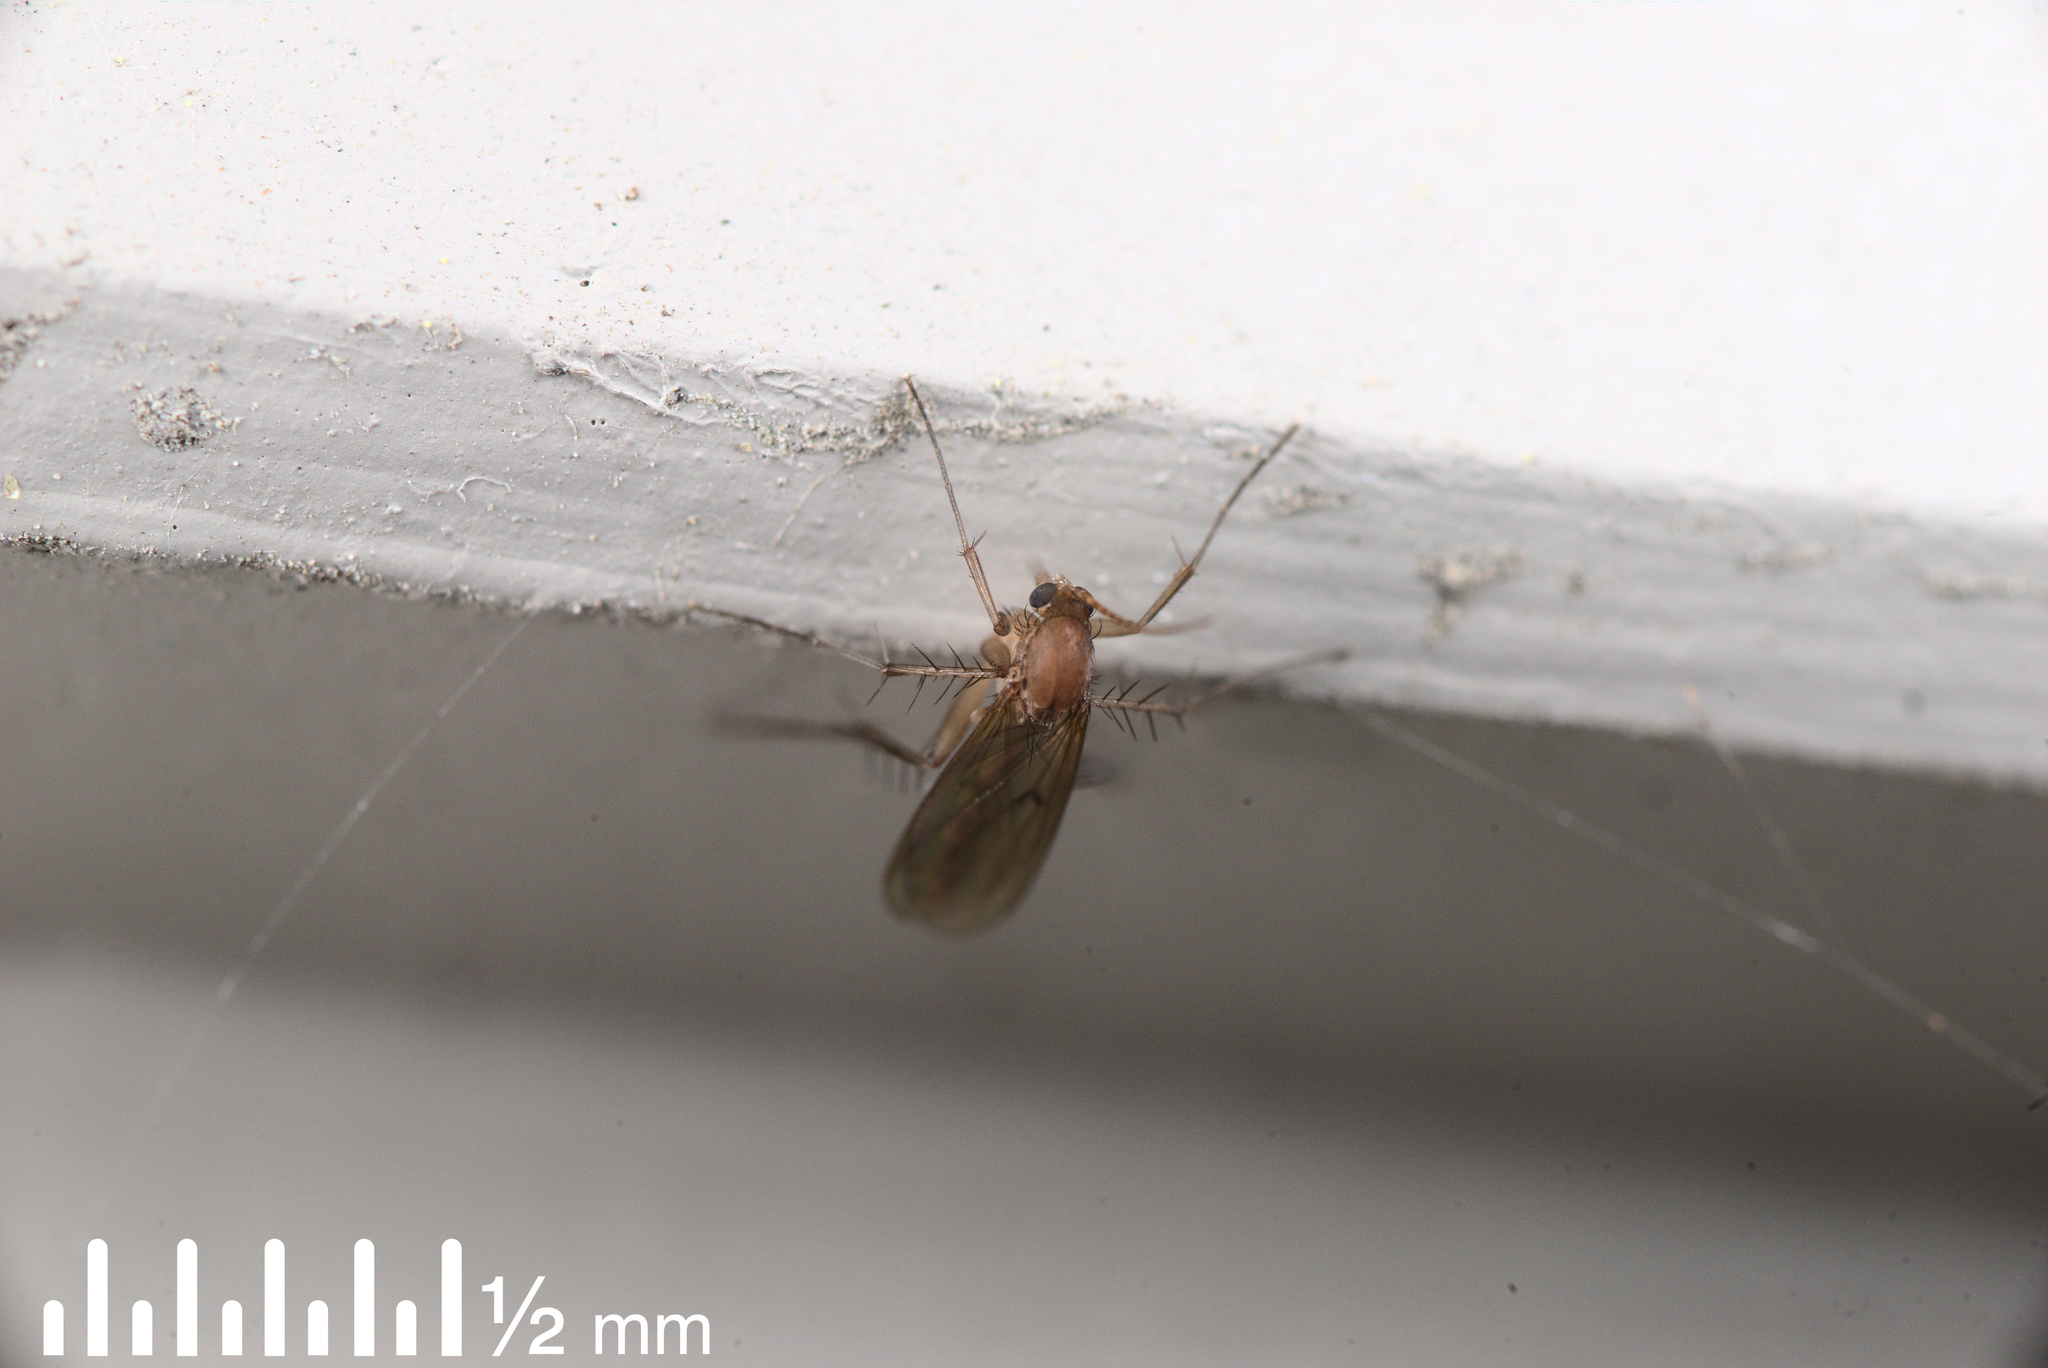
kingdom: Animalia
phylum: Arthropoda
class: Insecta
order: Diptera
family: Mycetophilidae
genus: Mycetophila
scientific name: Mycetophila fagi
